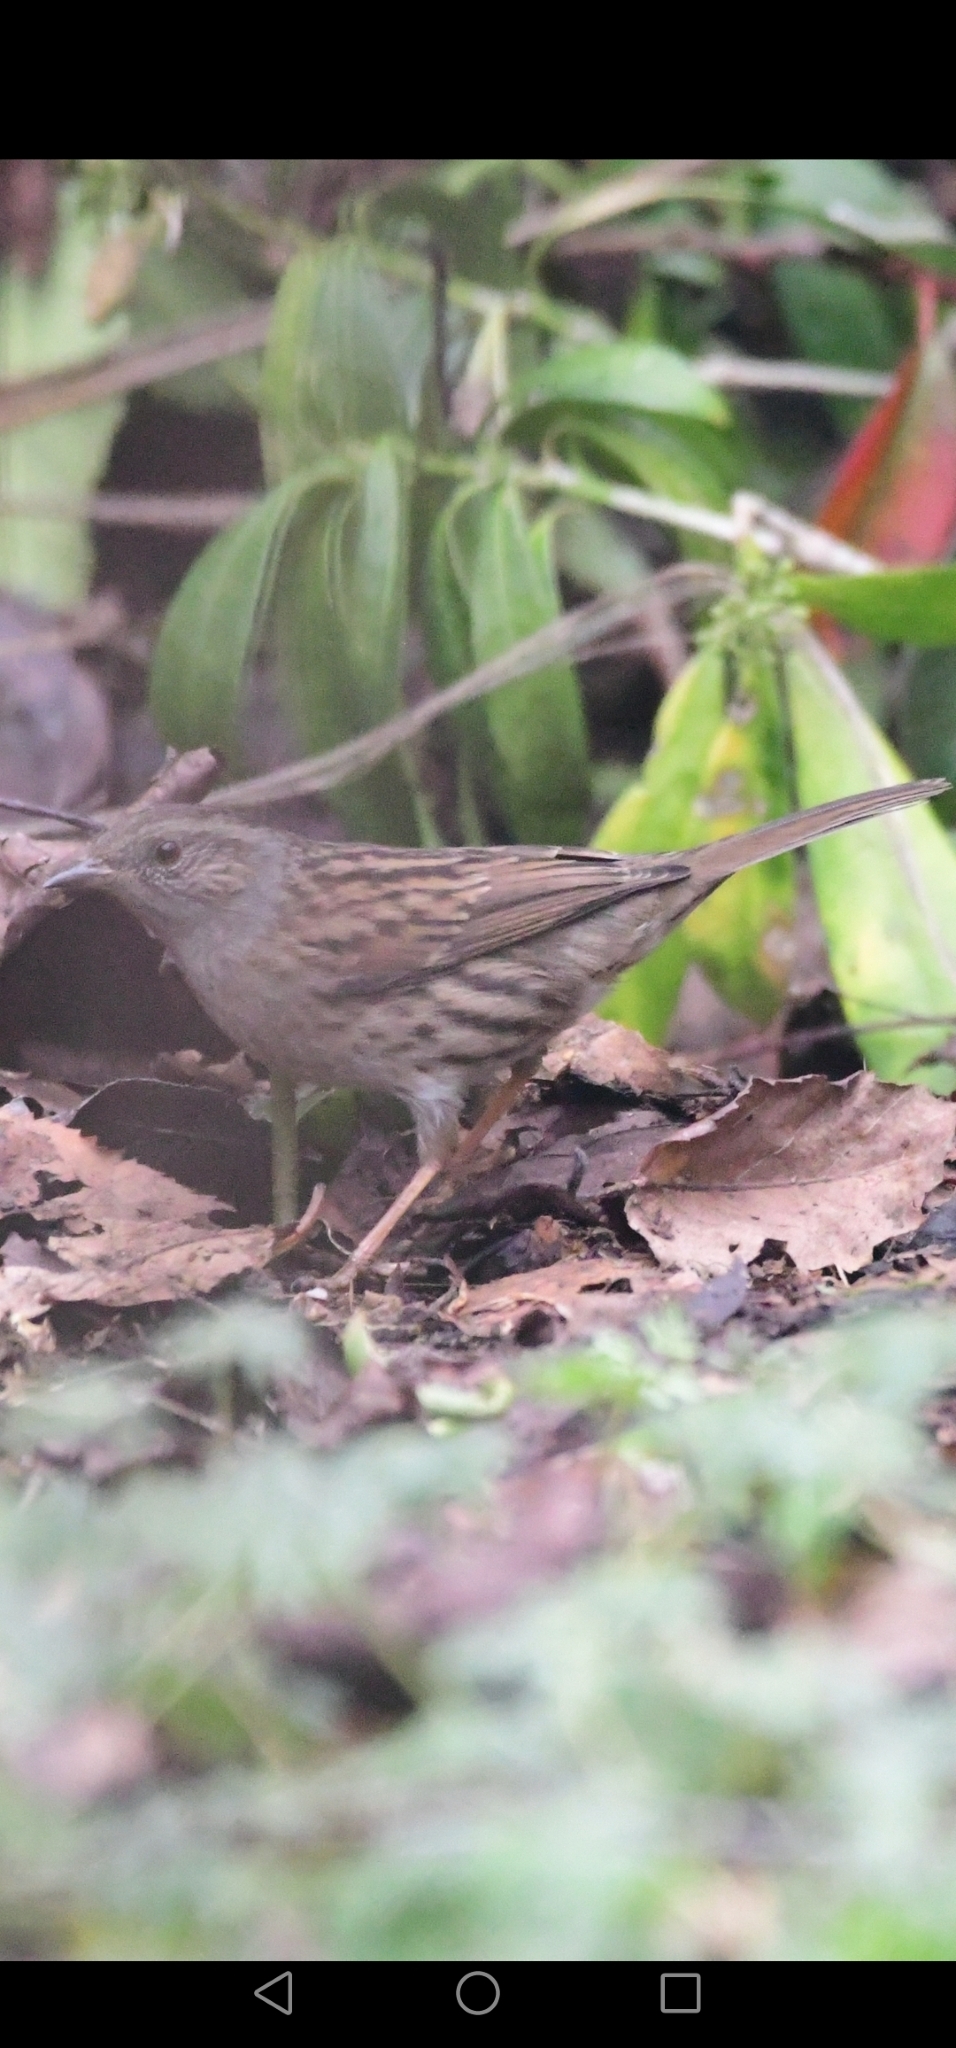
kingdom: Animalia
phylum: Chordata
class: Aves
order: Passeriformes
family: Prunellidae
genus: Prunella
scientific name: Prunella modularis
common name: Dunnock
